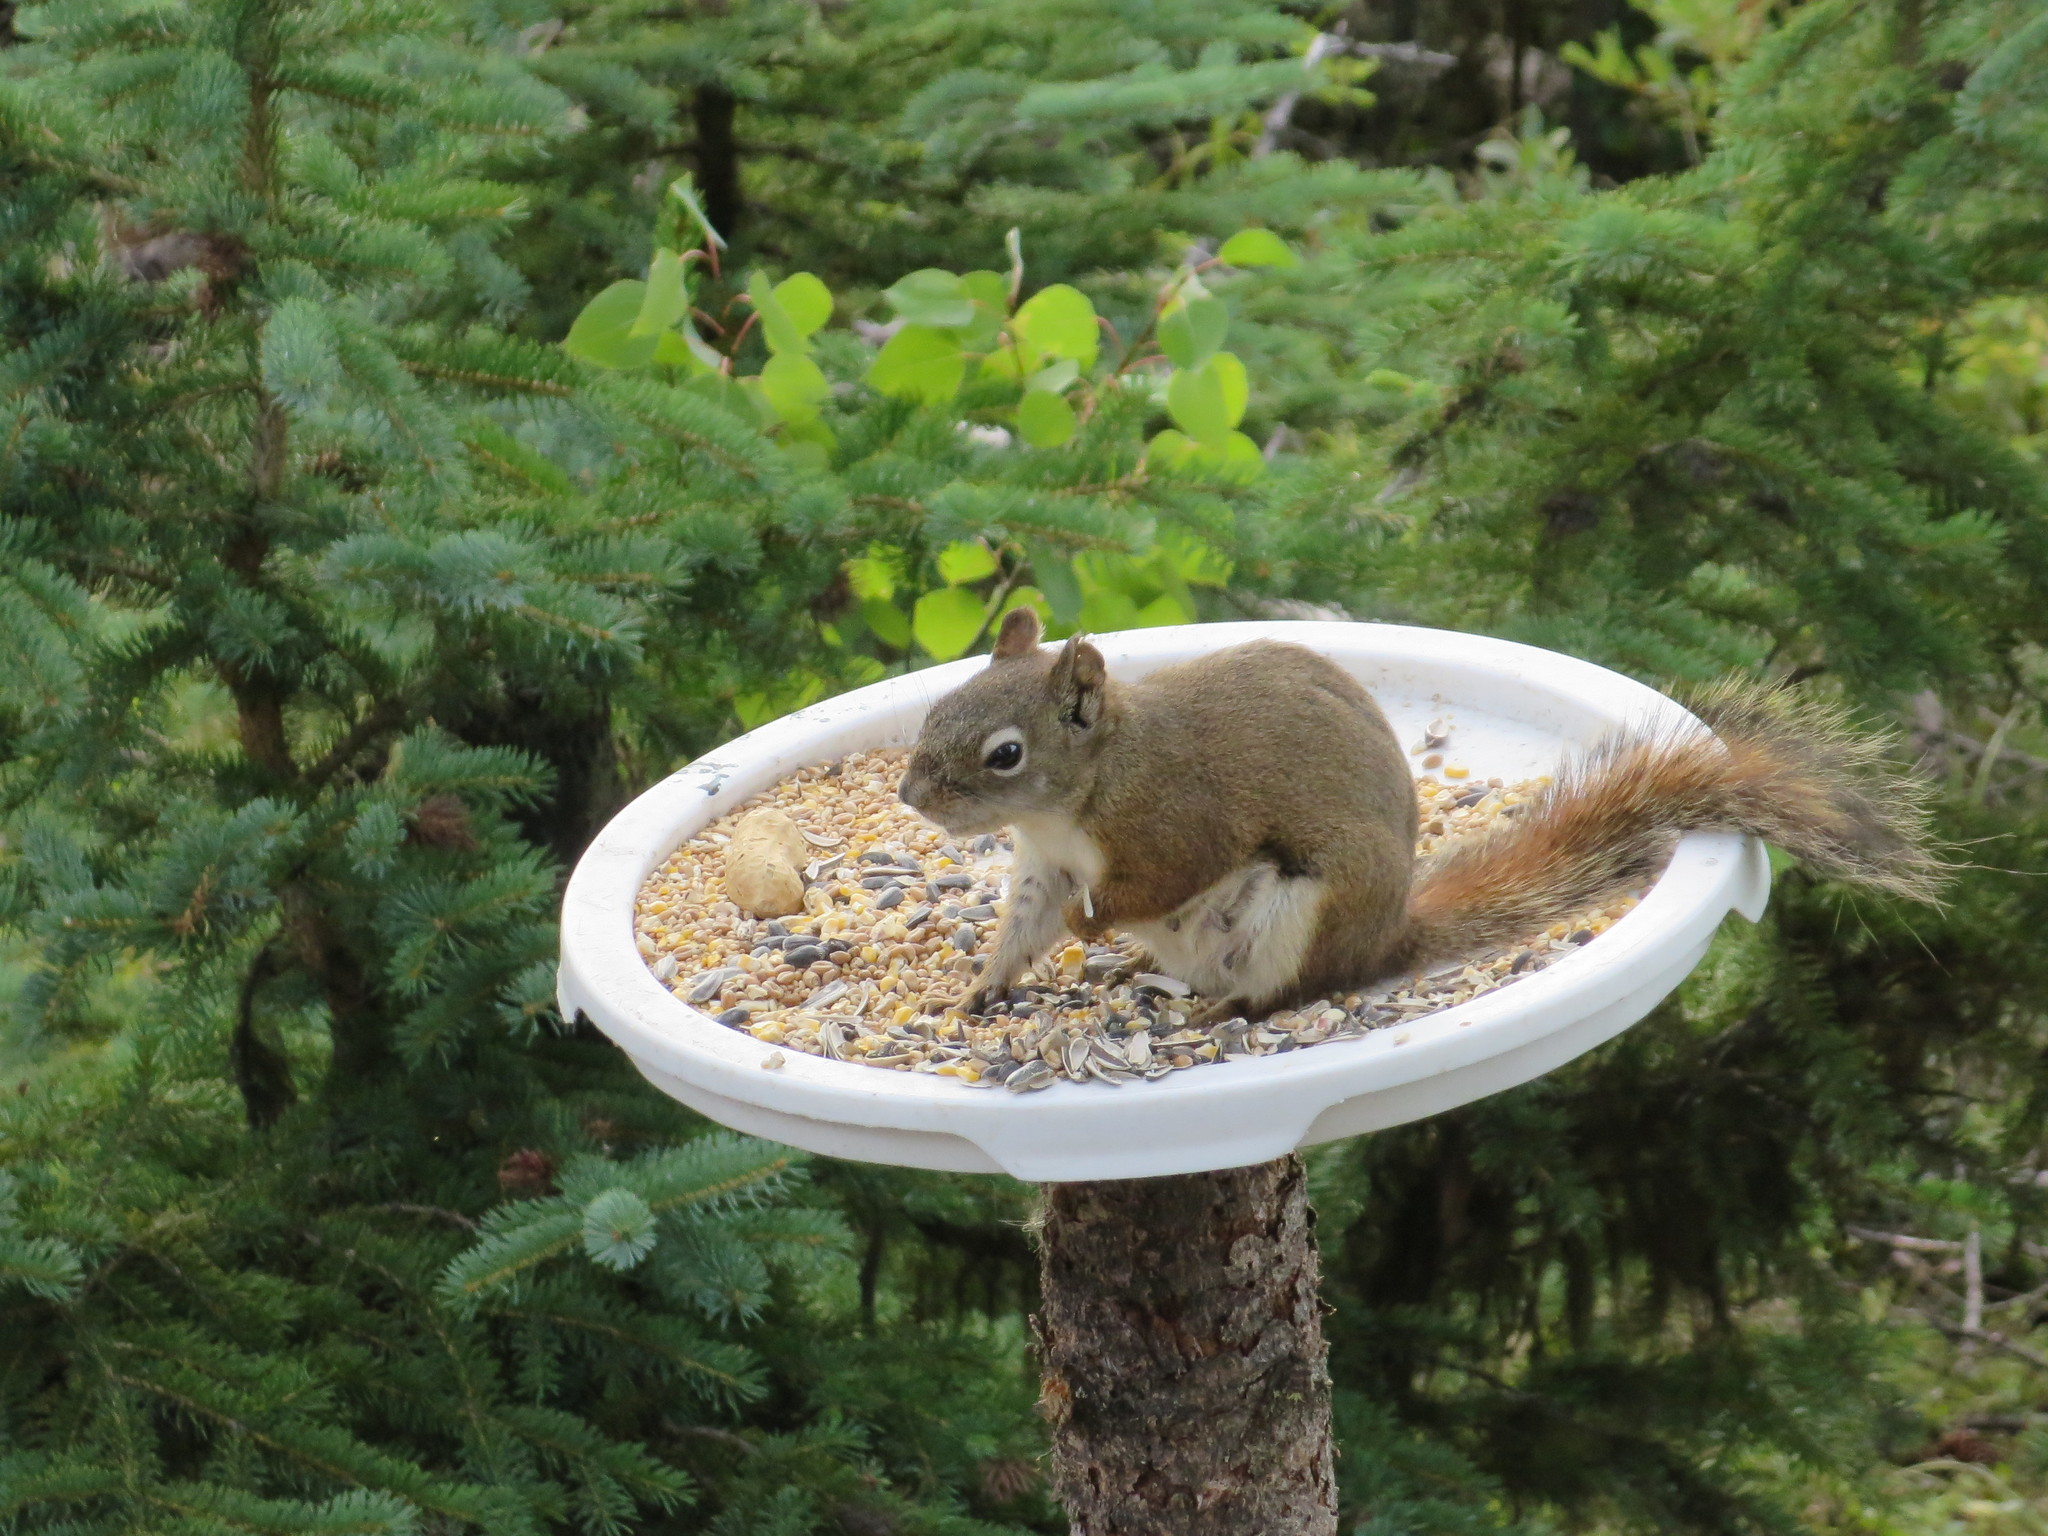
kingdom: Animalia
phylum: Chordata
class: Mammalia
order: Rodentia
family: Sciuridae
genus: Tamiasciurus
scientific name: Tamiasciurus hudsonicus
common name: Red squirrel
